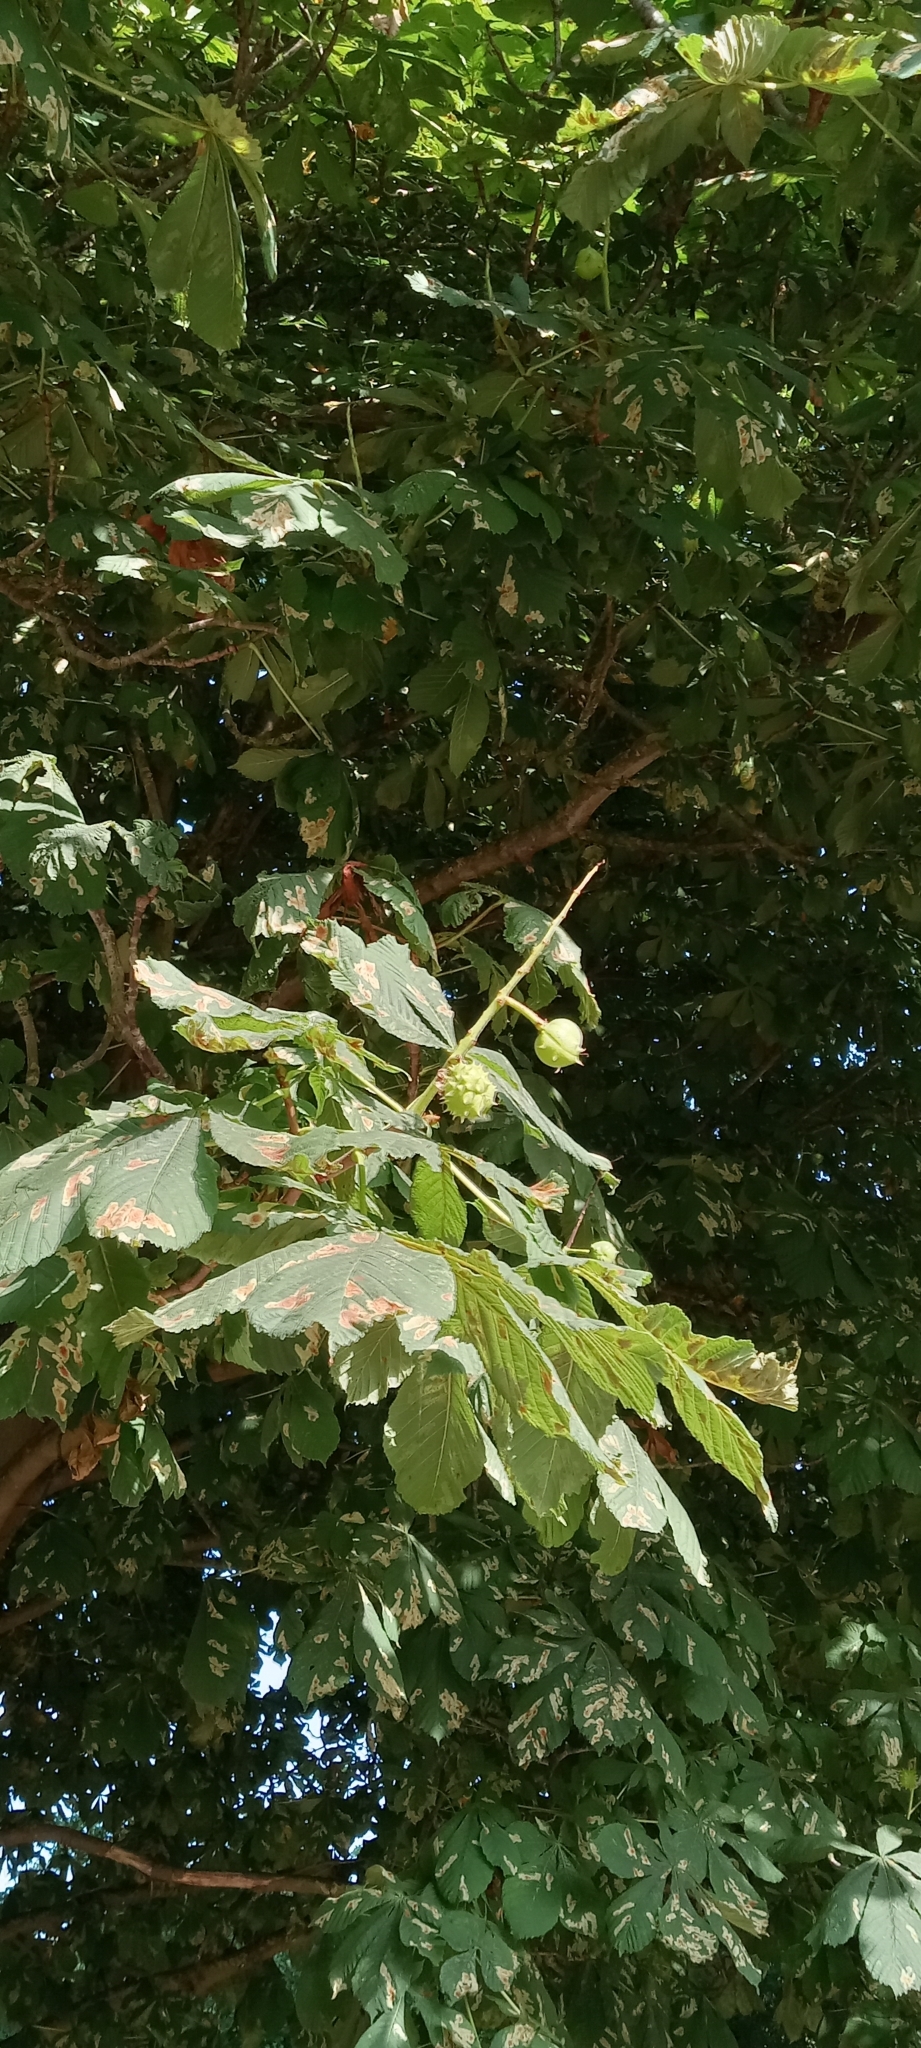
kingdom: Plantae
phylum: Tracheophyta
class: Magnoliopsida
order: Sapindales
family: Sapindaceae
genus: Aesculus
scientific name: Aesculus hippocastanum
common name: Horse-chestnut
